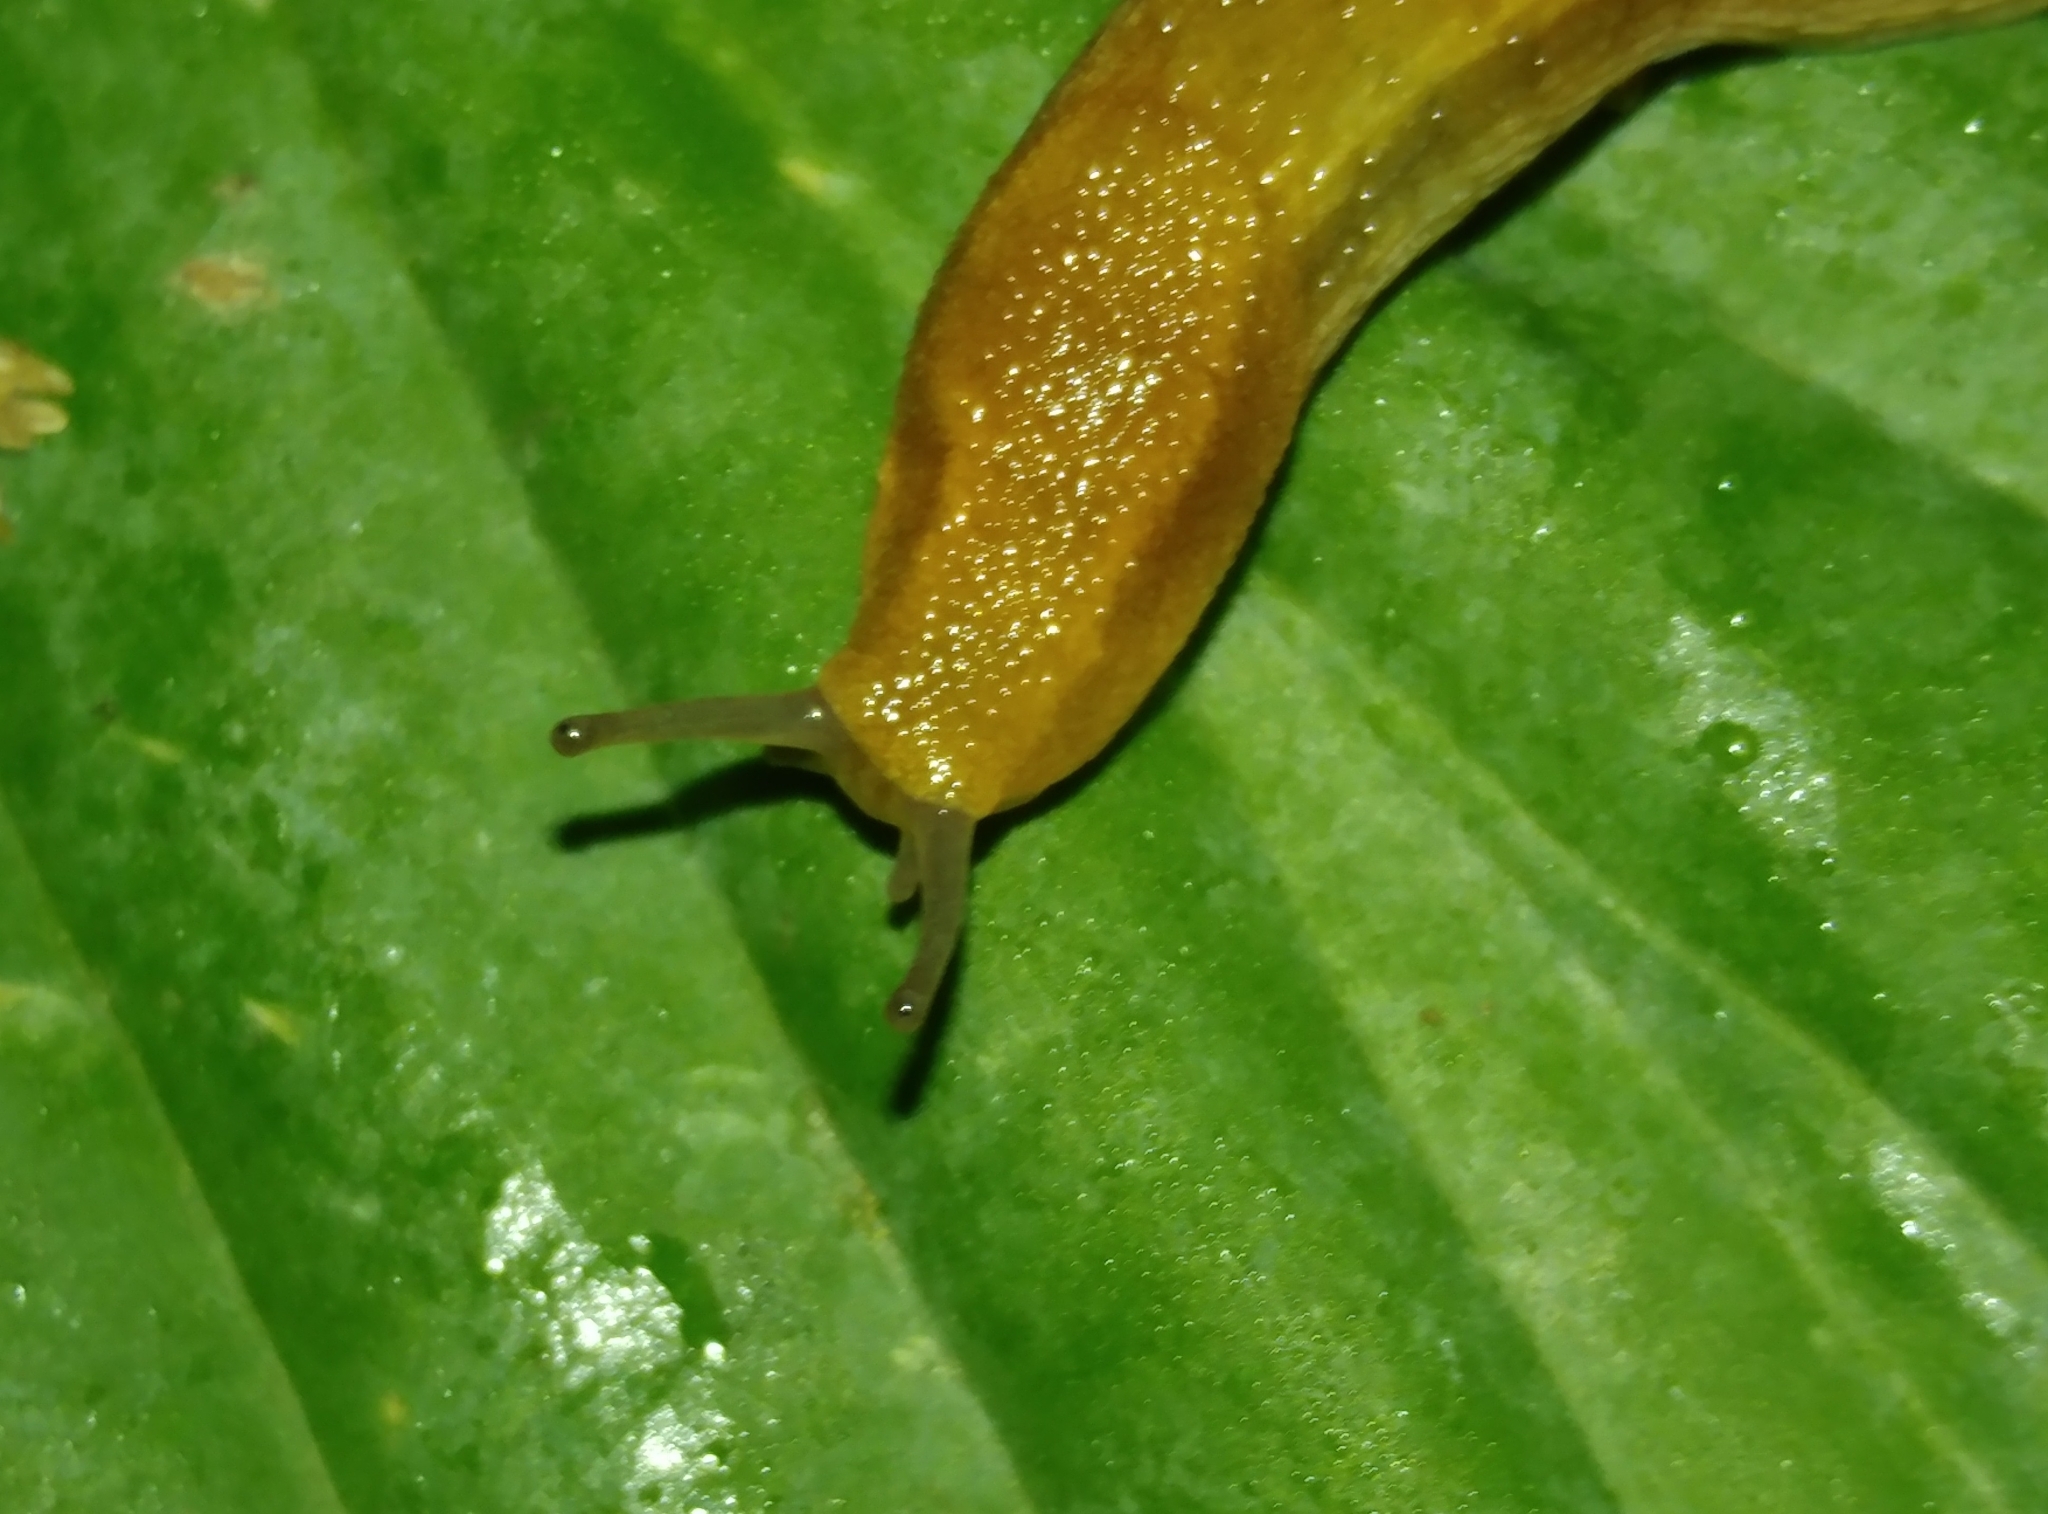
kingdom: Animalia
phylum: Mollusca
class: Gastropoda
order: Stylommatophora
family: Arionidae
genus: Arion
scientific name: Arion subfuscus
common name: Dusky arion
